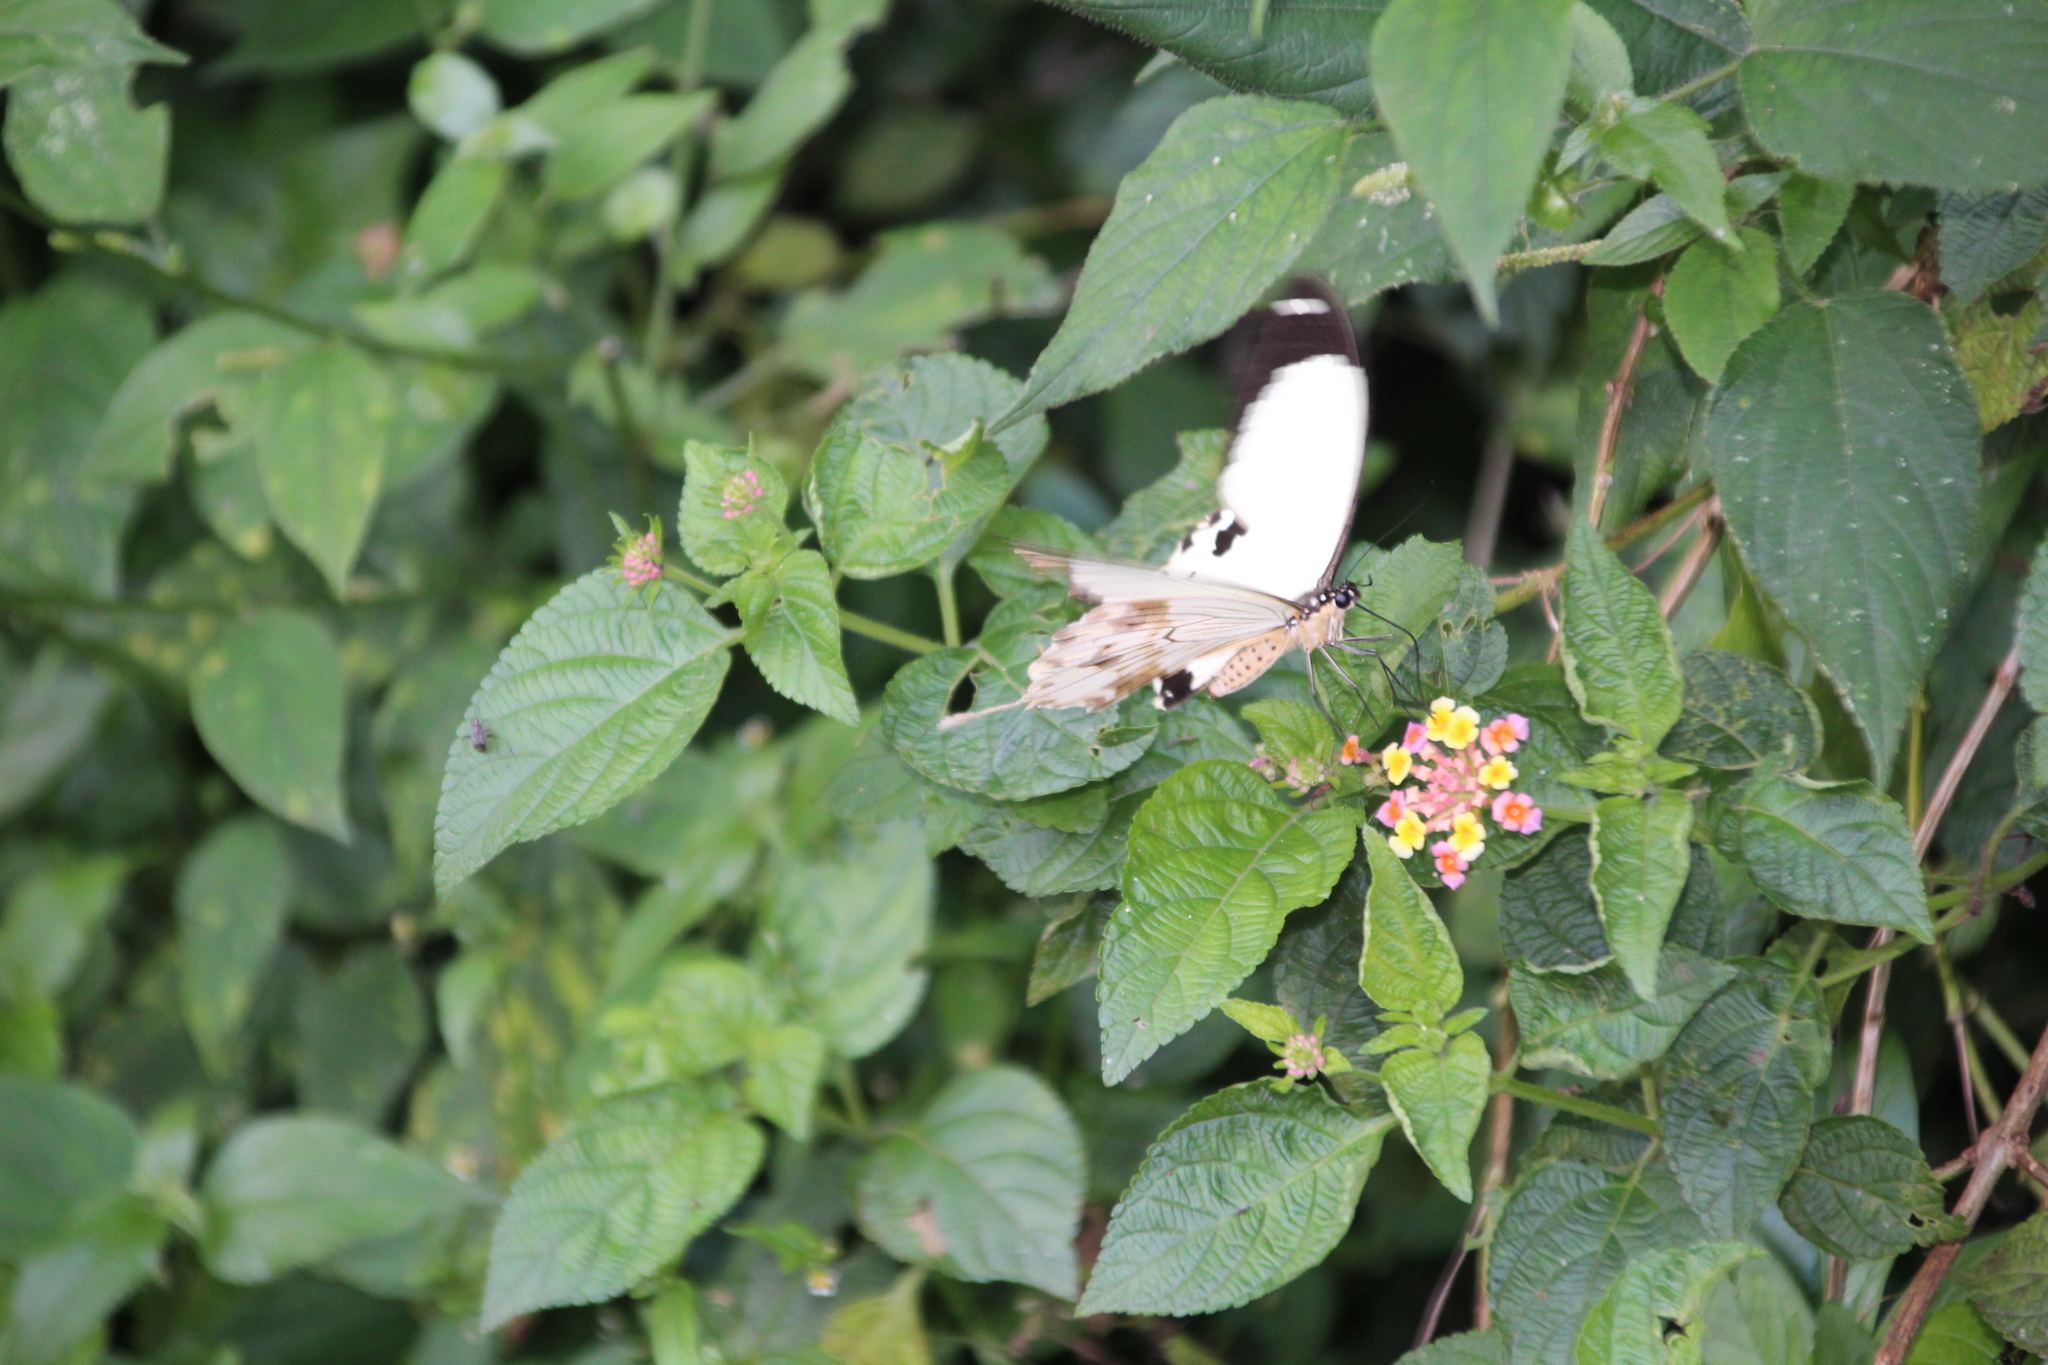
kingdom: Animalia
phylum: Arthropoda
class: Insecta
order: Lepidoptera
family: Papilionidae
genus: Papilio
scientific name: Papilio dardanus
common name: Flying handkerchief
